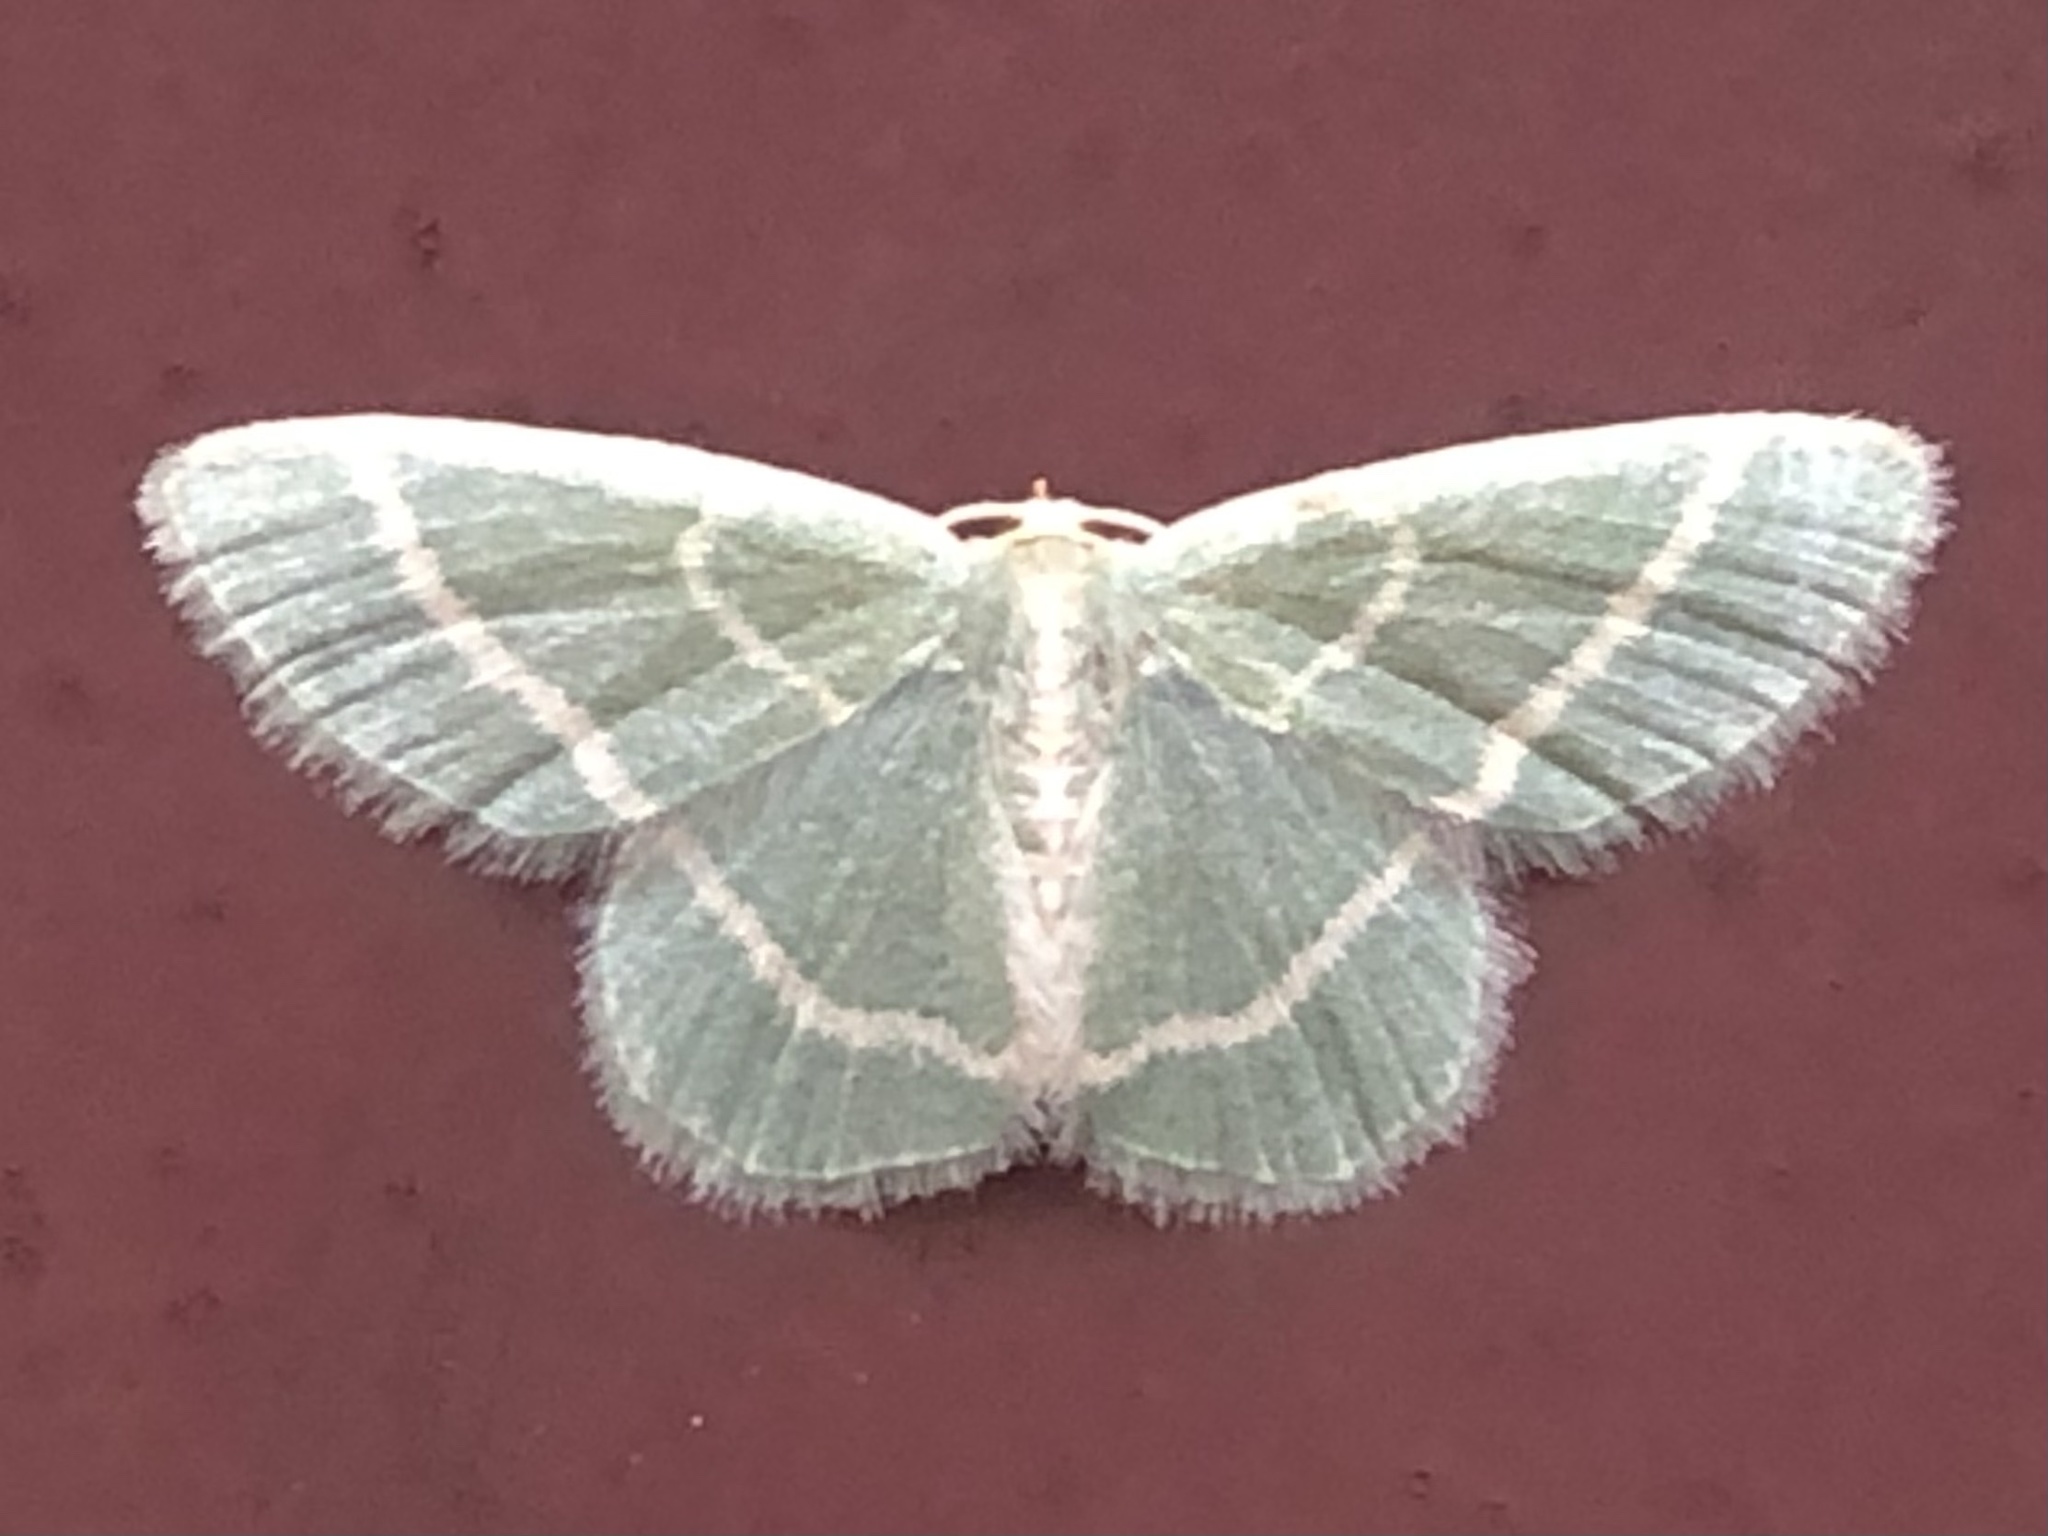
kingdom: Animalia
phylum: Arthropoda
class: Insecta
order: Lepidoptera
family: Geometridae
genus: Chlorochlamys
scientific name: Chlorochlamys chloroleucaria
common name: Blackberry looper
